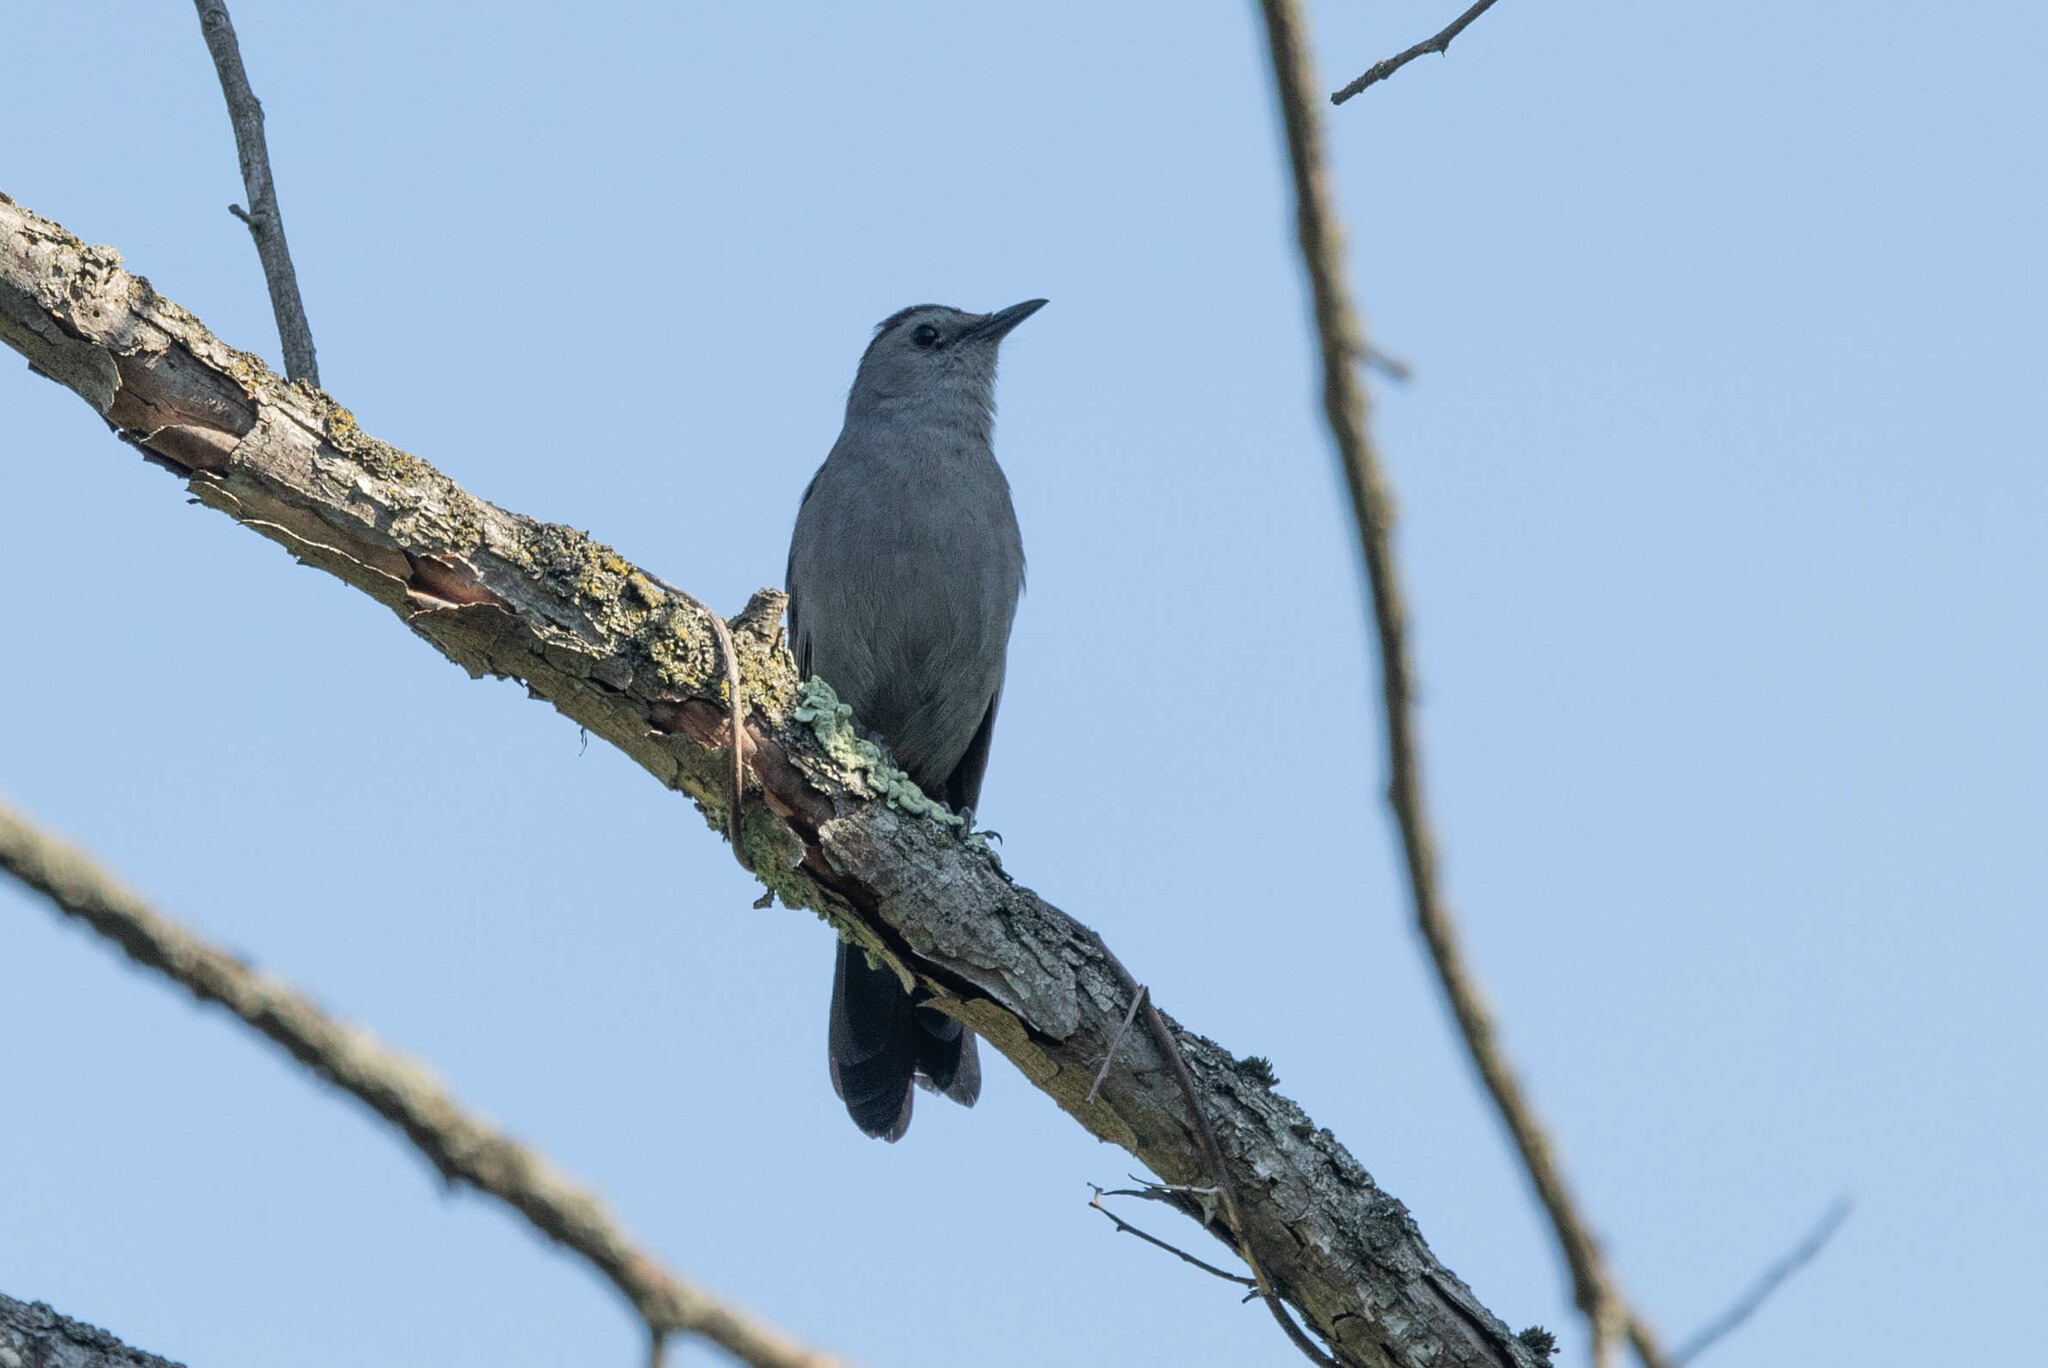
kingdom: Animalia
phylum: Chordata
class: Aves
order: Passeriformes
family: Mimidae
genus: Dumetella
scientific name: Dumetella carolinensis
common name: Gray catbird
